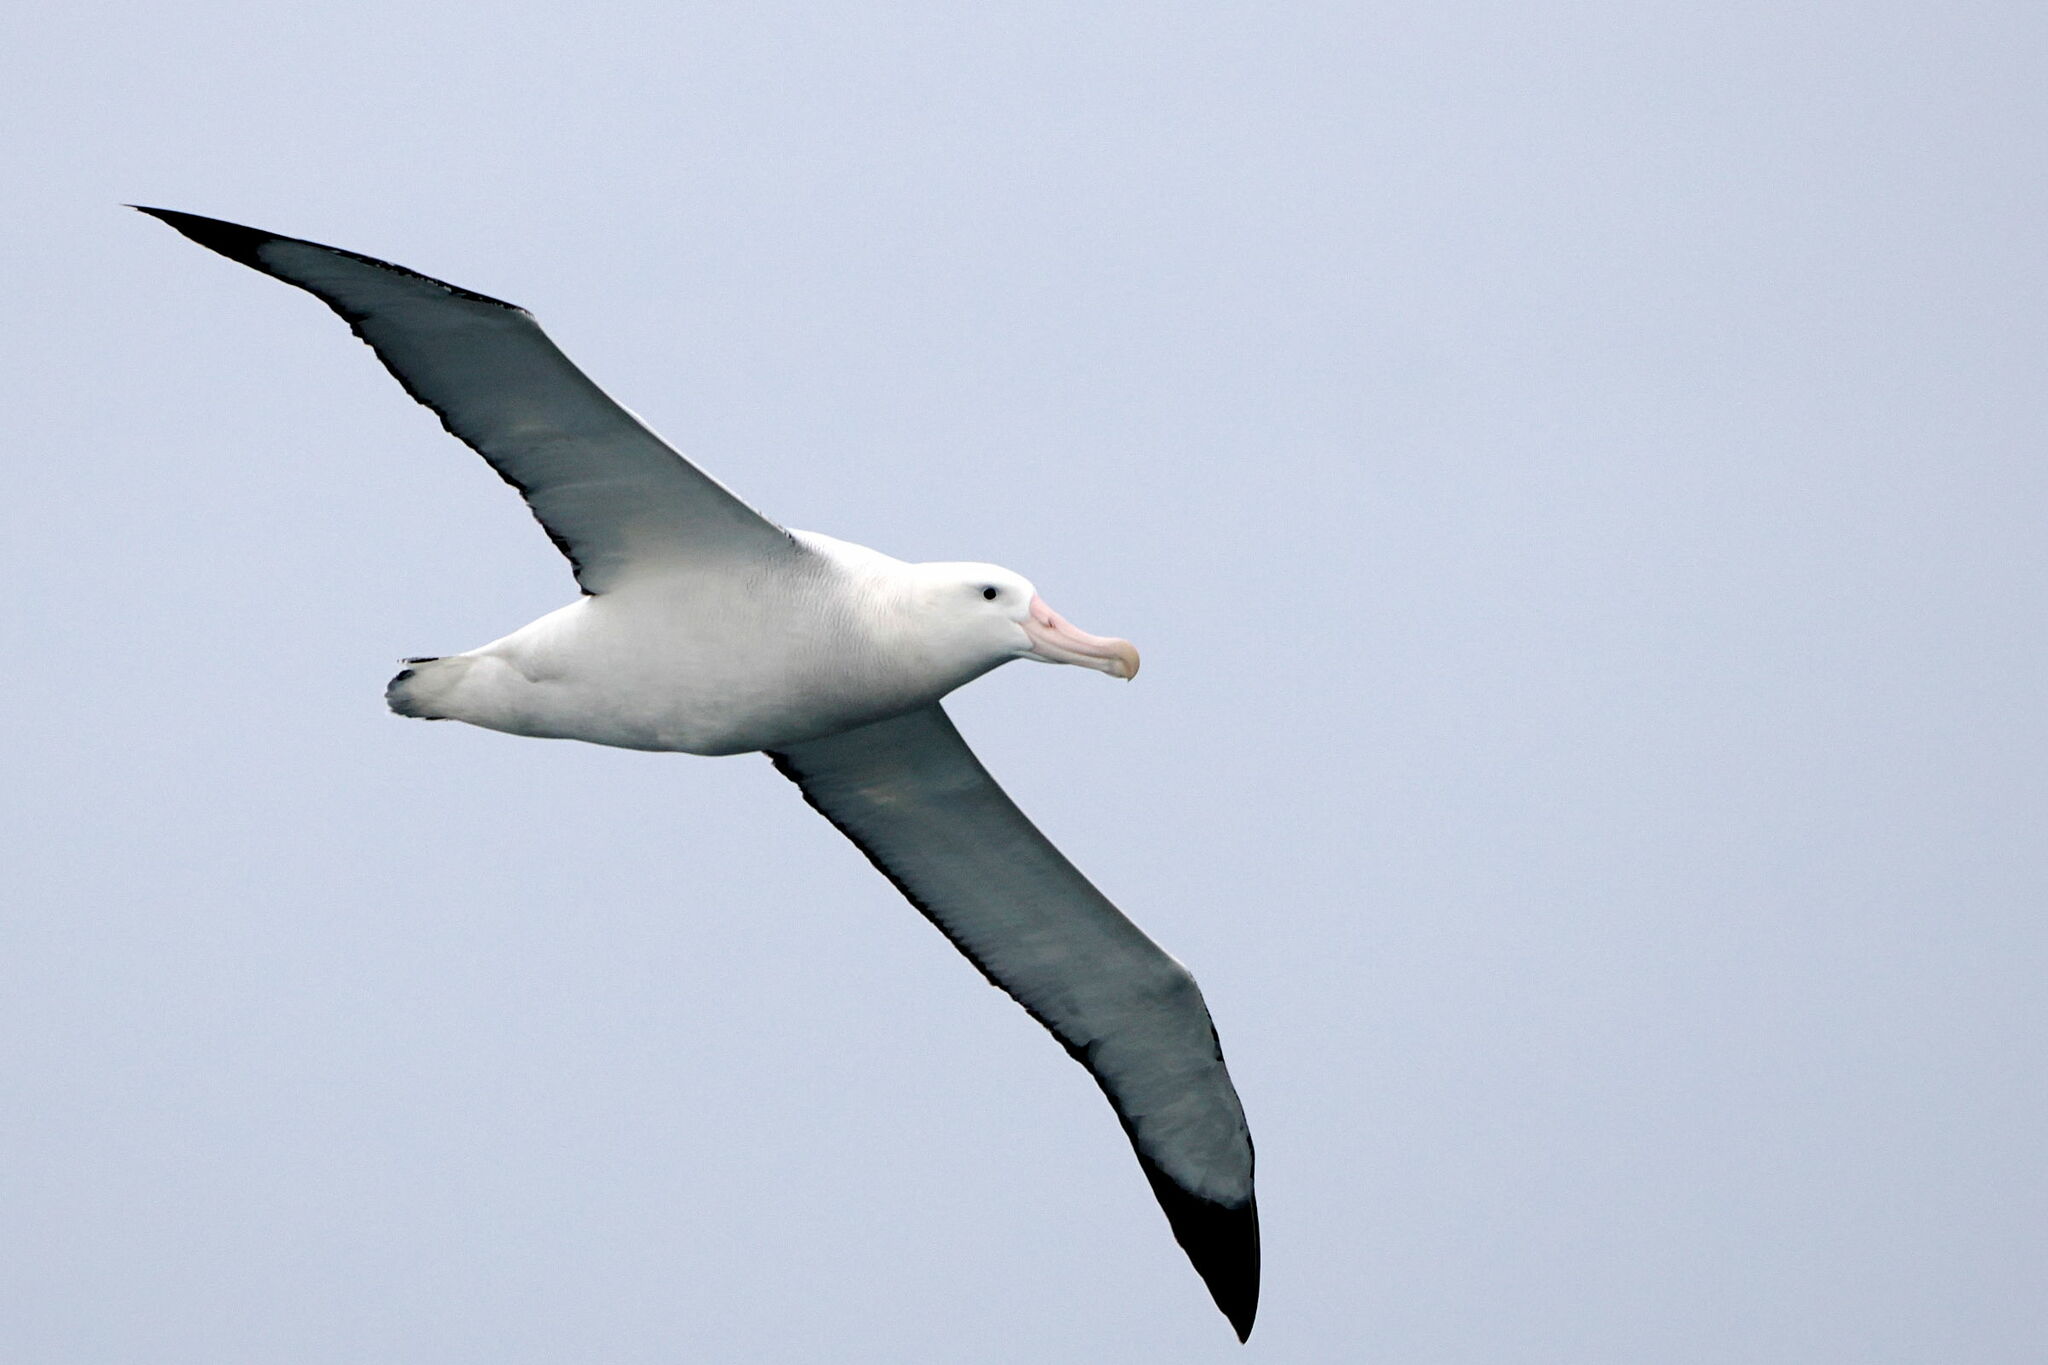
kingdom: Animalia
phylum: Chordata
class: Aves
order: Procellariiformes
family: Diomedeidae
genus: Diomedea
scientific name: Diomedea exulans
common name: Wandering albatross
